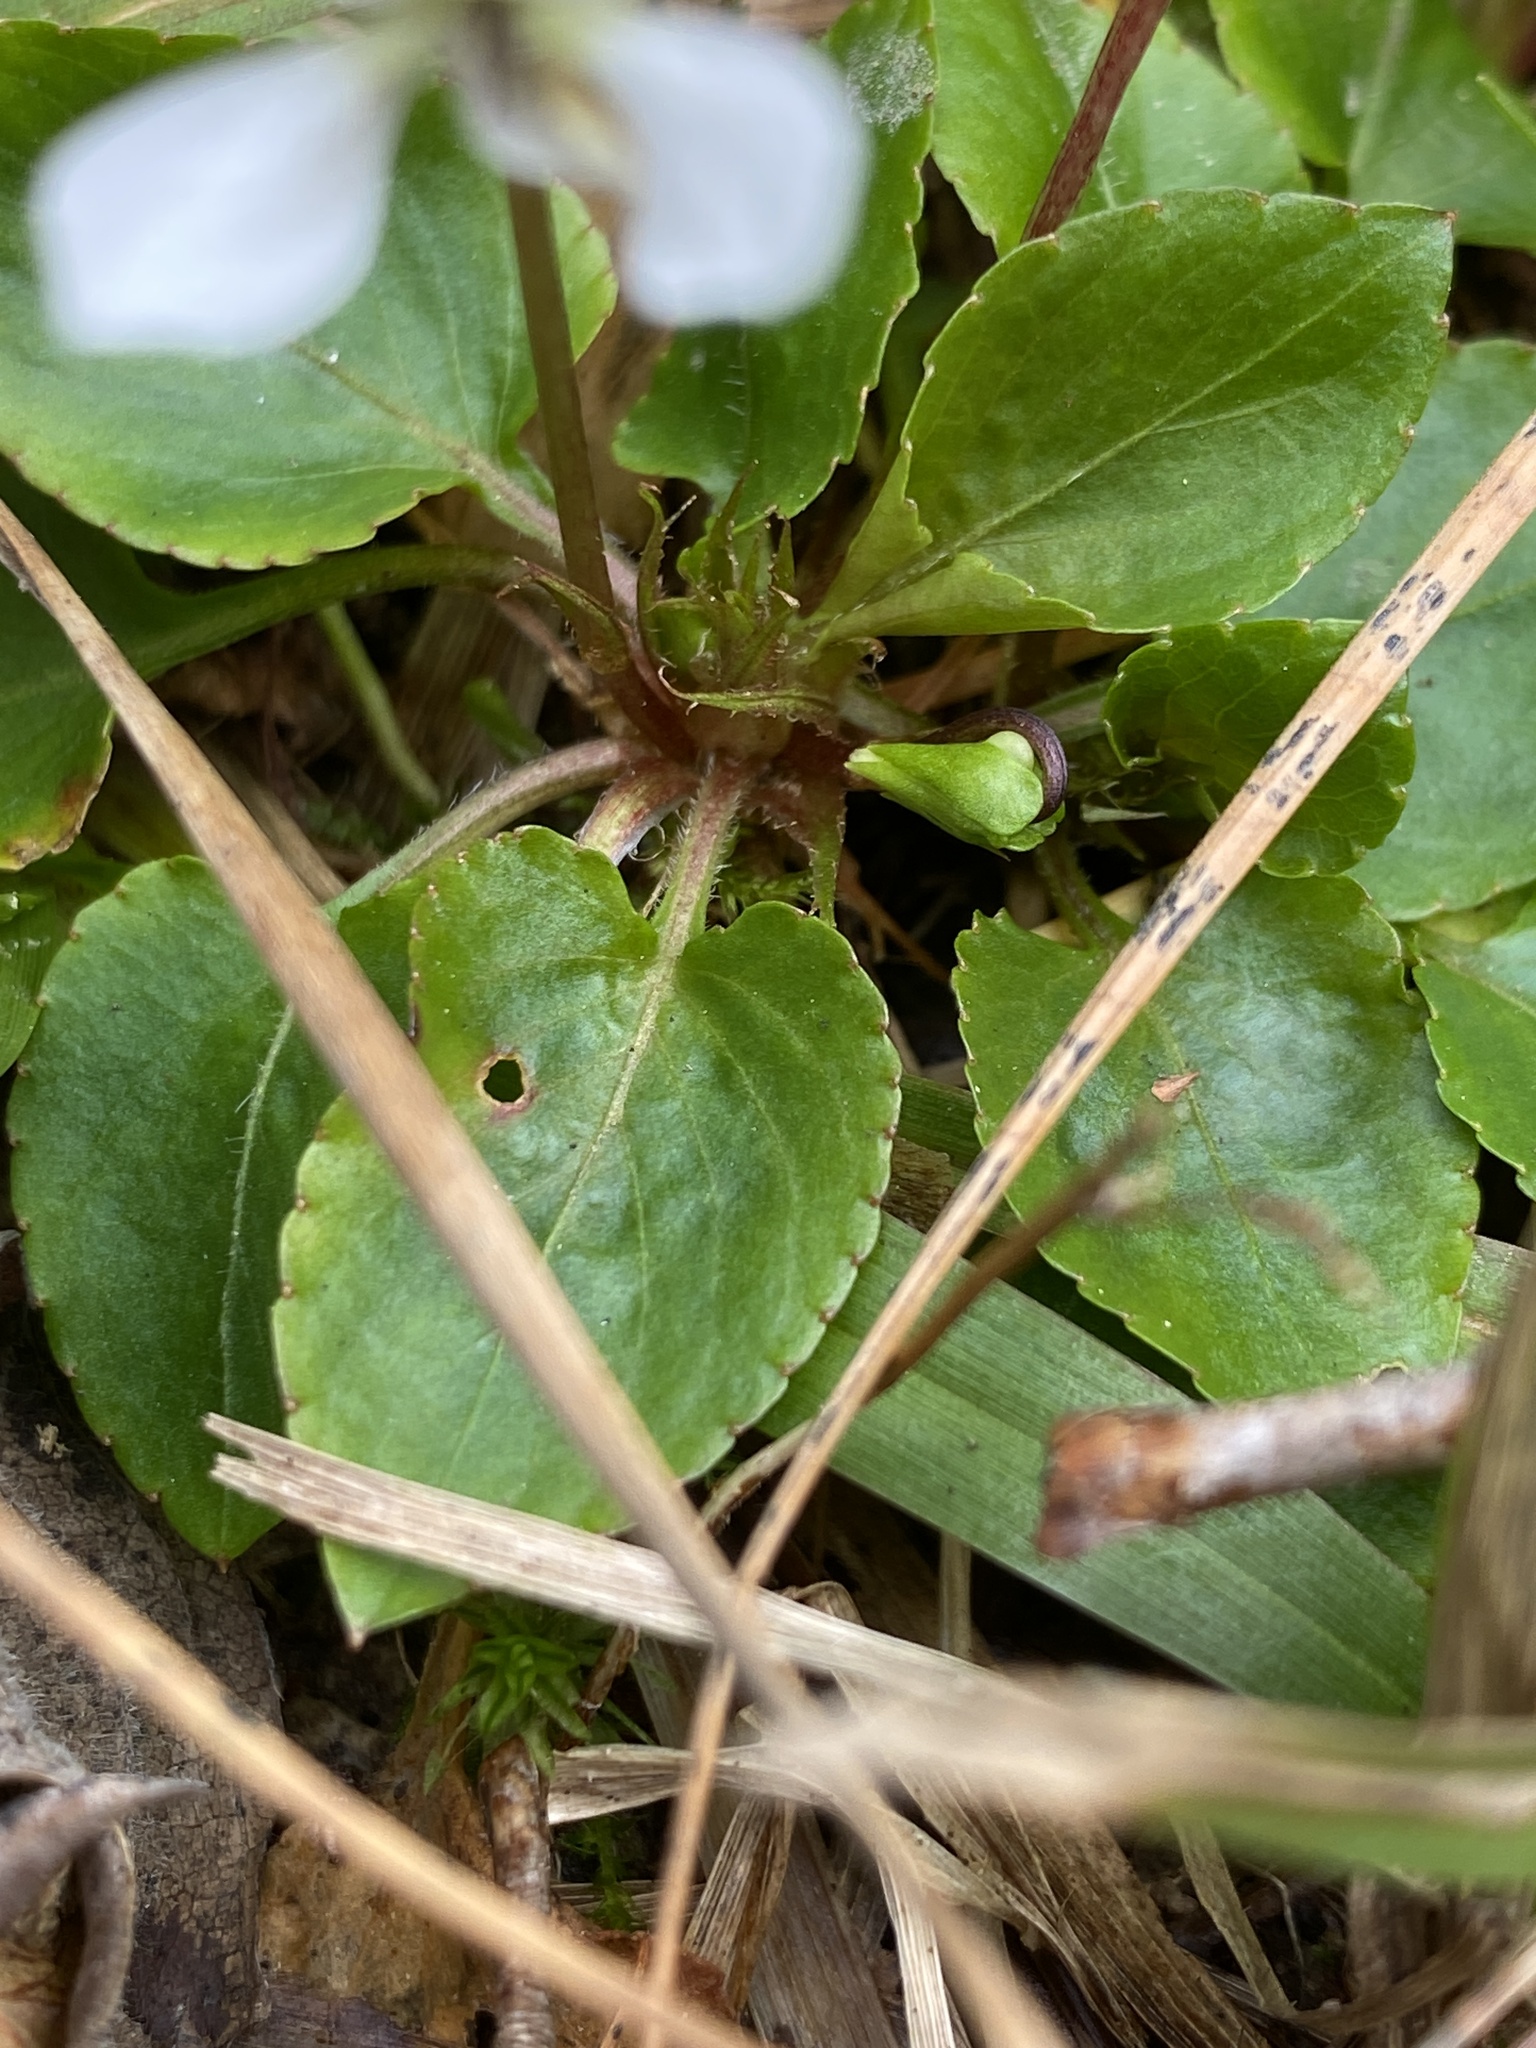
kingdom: Plantae
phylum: Tracheophyta
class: Magnoliopsida
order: Malpighiales
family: Violaceae
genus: Viola
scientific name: Viola primulifolia
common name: Primrose-leaf violet
